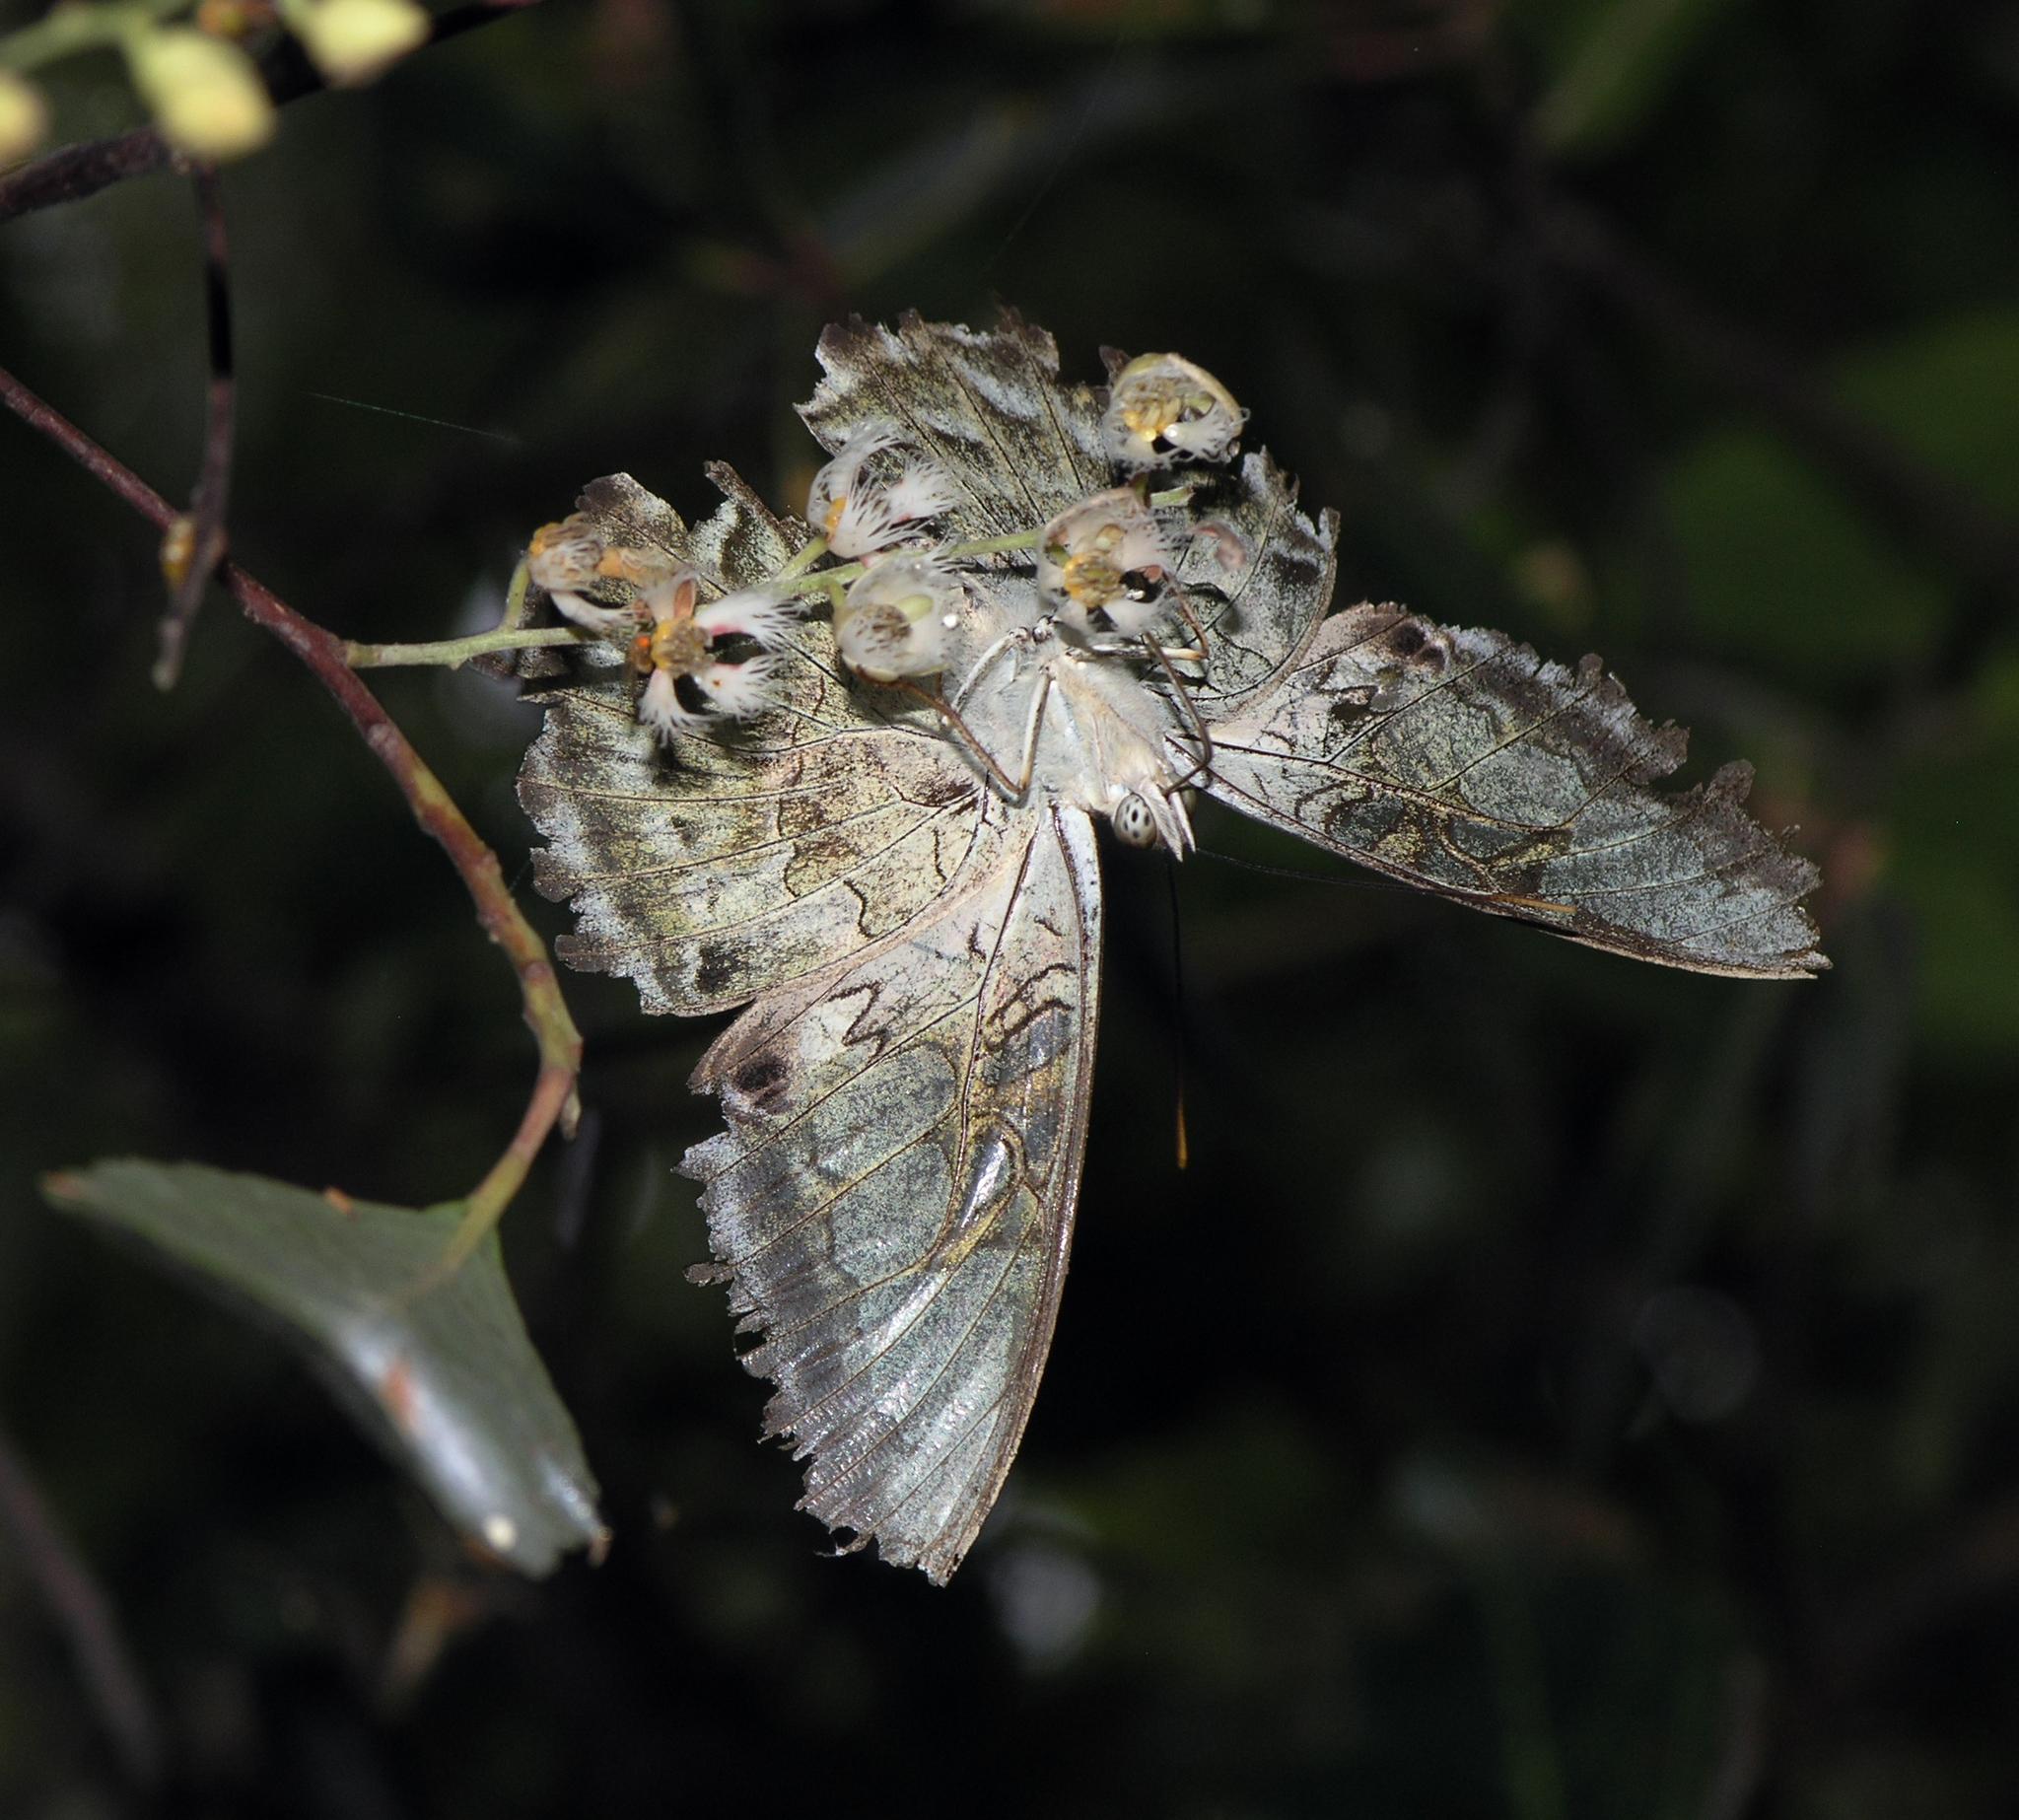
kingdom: Animalia
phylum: Arthropoda
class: Insecta
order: Lepidoptera
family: Nymphalidae
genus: Kallima
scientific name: Kallima sylvia
